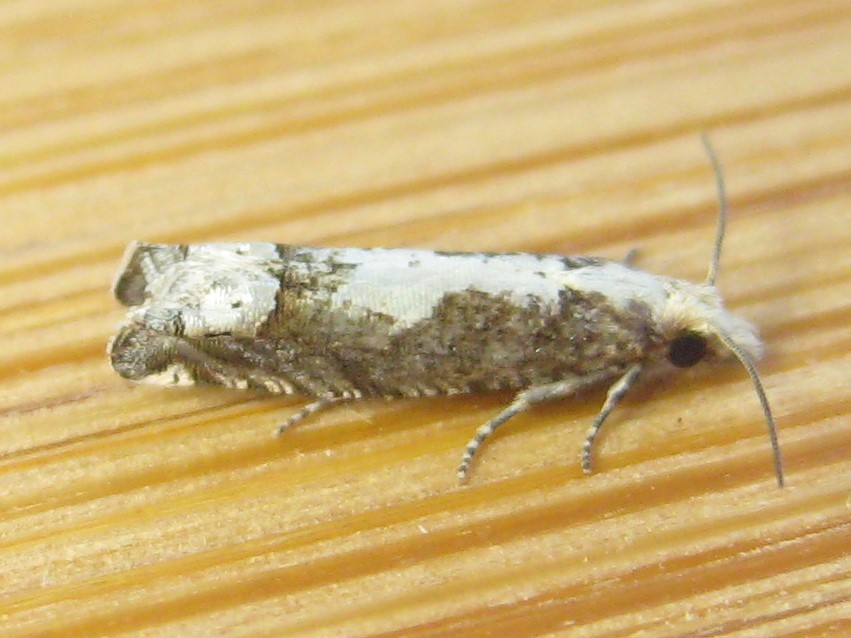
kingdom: Animalia
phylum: Arthropoda
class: Insecta
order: Lepidoptera
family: Tortricidae
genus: Suleima
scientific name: Suleima cinerodorsana
